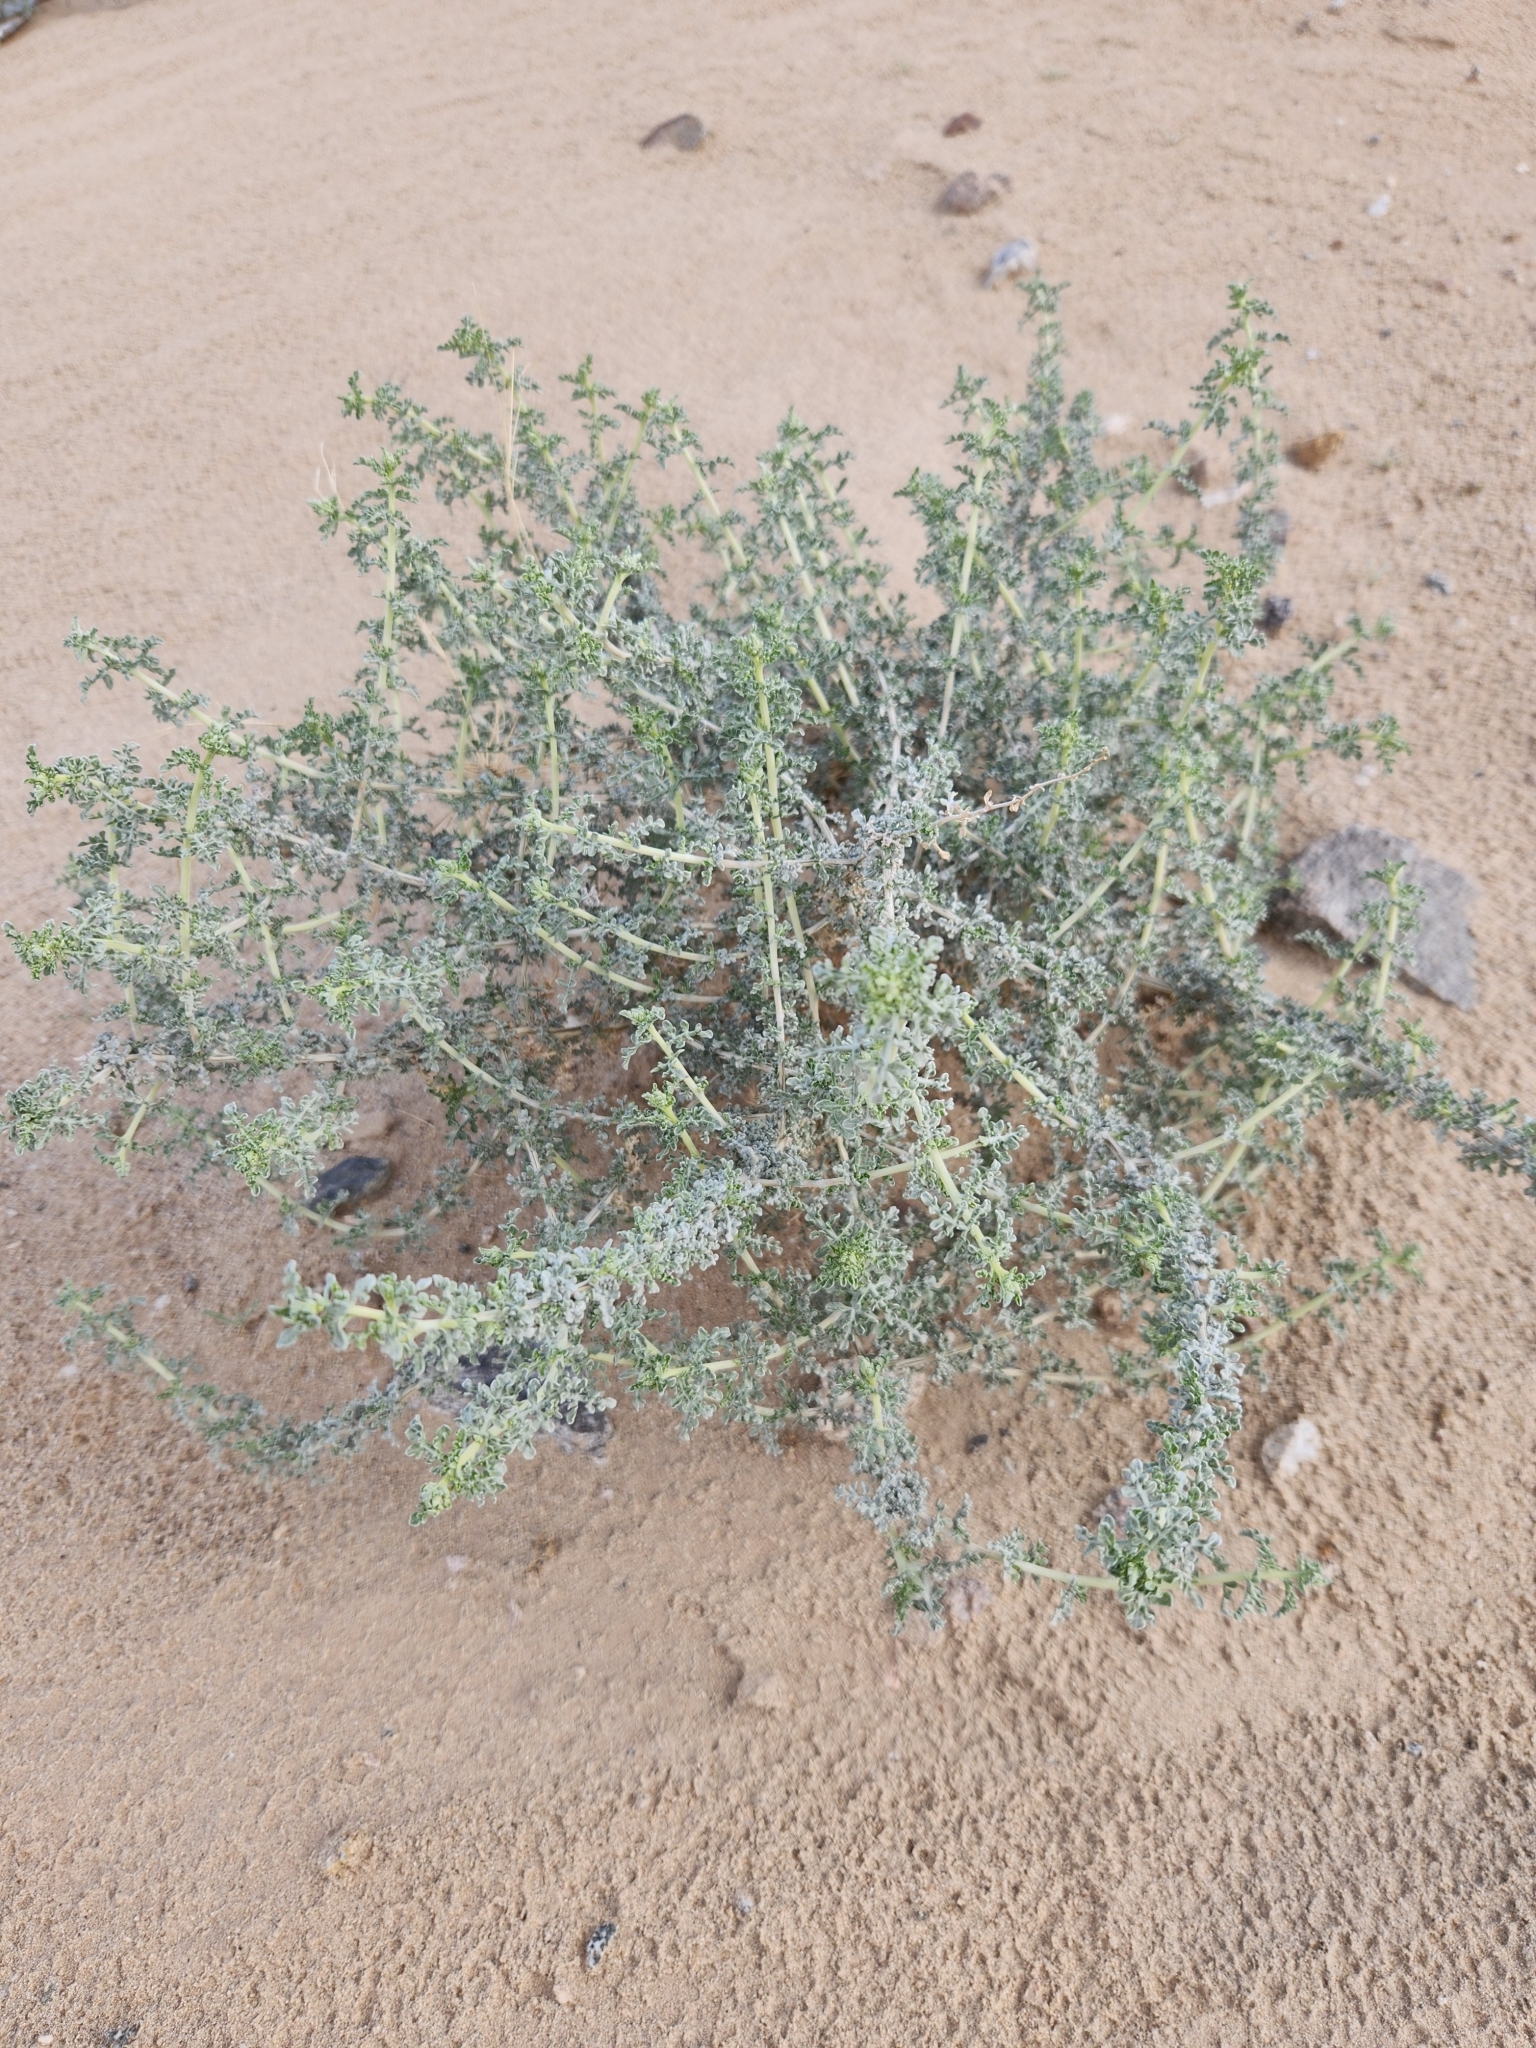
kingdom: Plantae
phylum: Tracheophyta
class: Magnoliopsida
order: Asterales
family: Asteraceae
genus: Ambrosia
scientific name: Ambrosia dumosa
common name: Bur-sage
